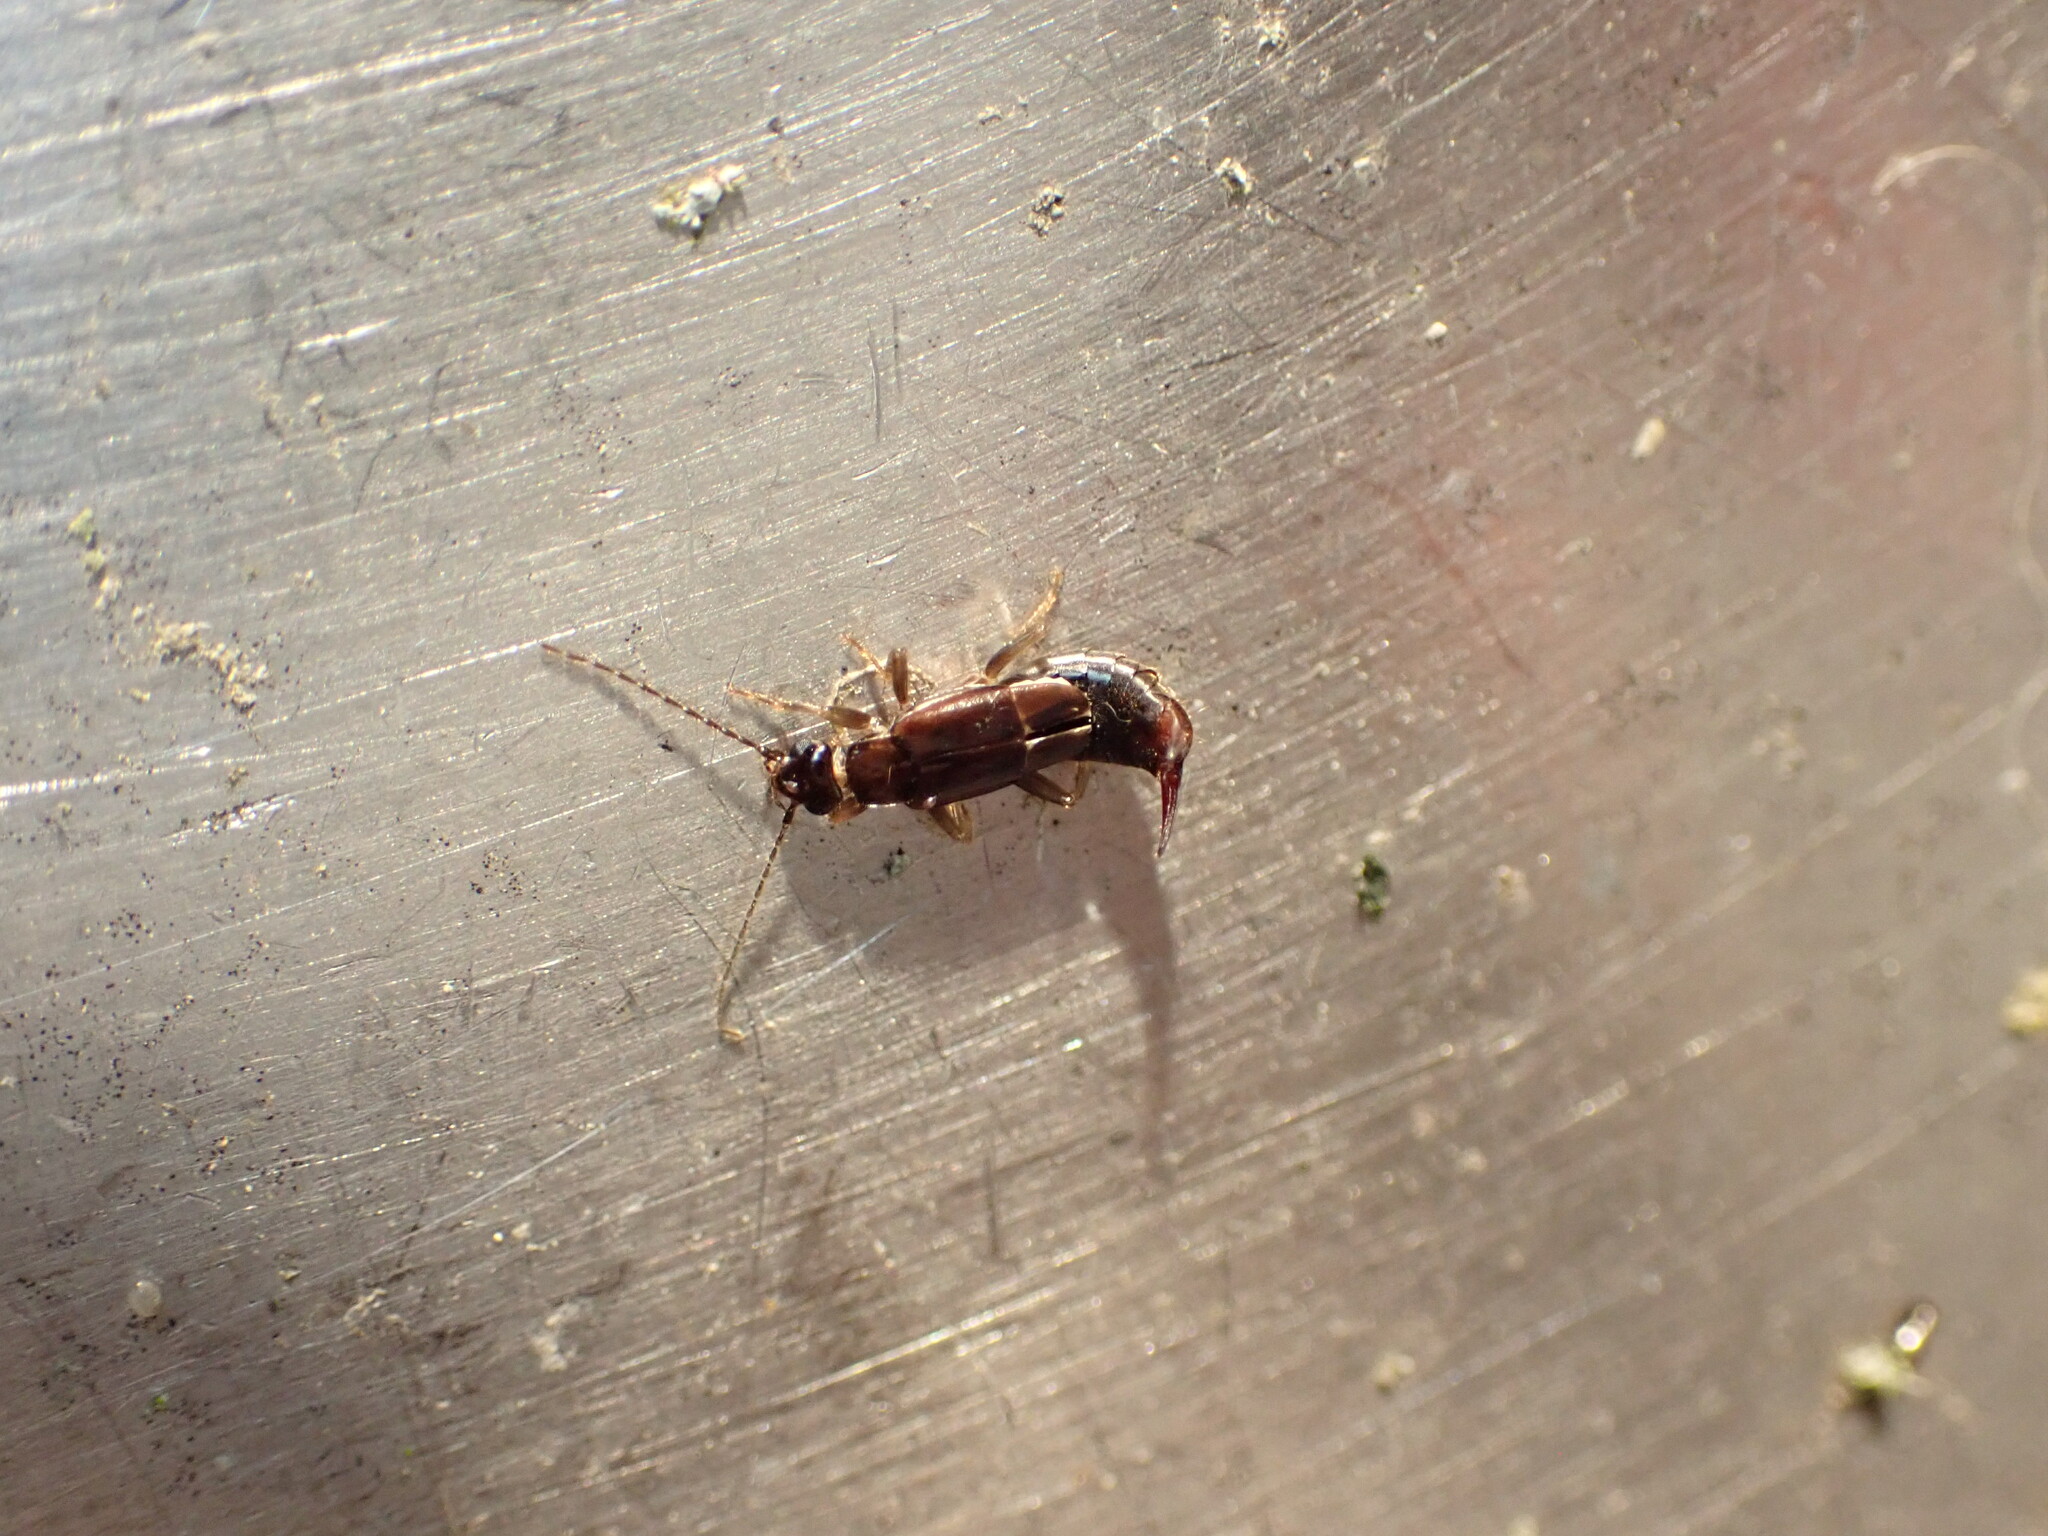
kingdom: Animalia
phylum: Arthropoda
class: Insecta
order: Dermaptera
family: Spongiphoridae
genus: Nesogaster
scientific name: Nesogaster halli
